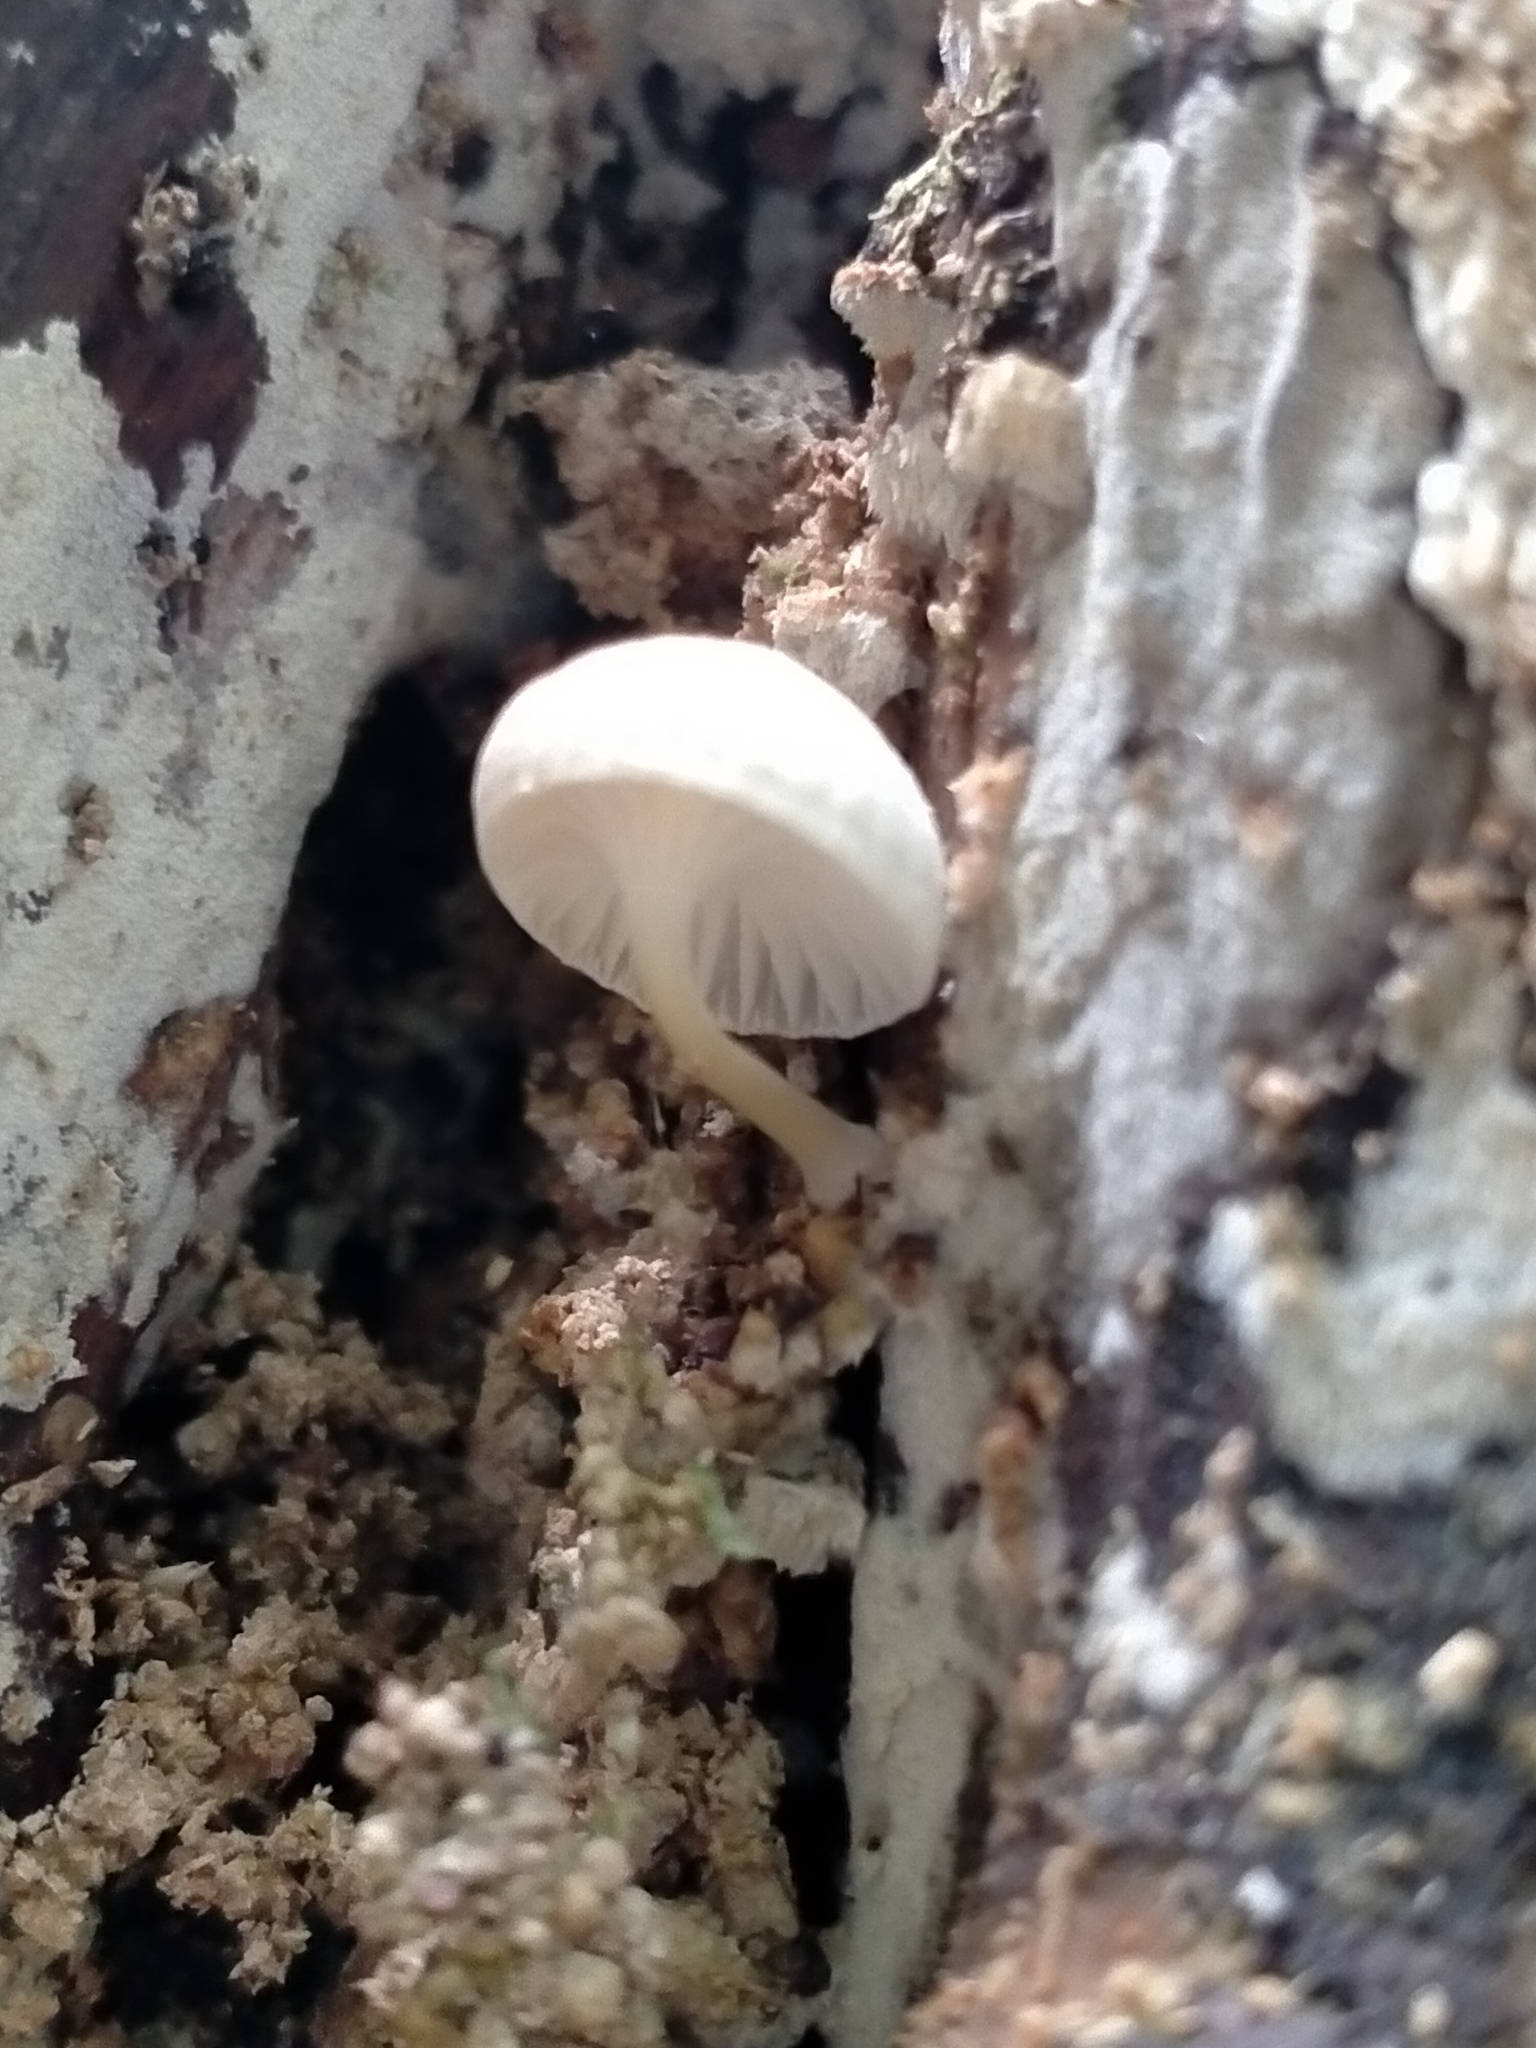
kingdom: Fungi
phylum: Basidiomycota
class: Agaricomycetes
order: Agaricales
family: Porotheleaceae
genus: Porotheleum
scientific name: Porotheleum albodescendens
